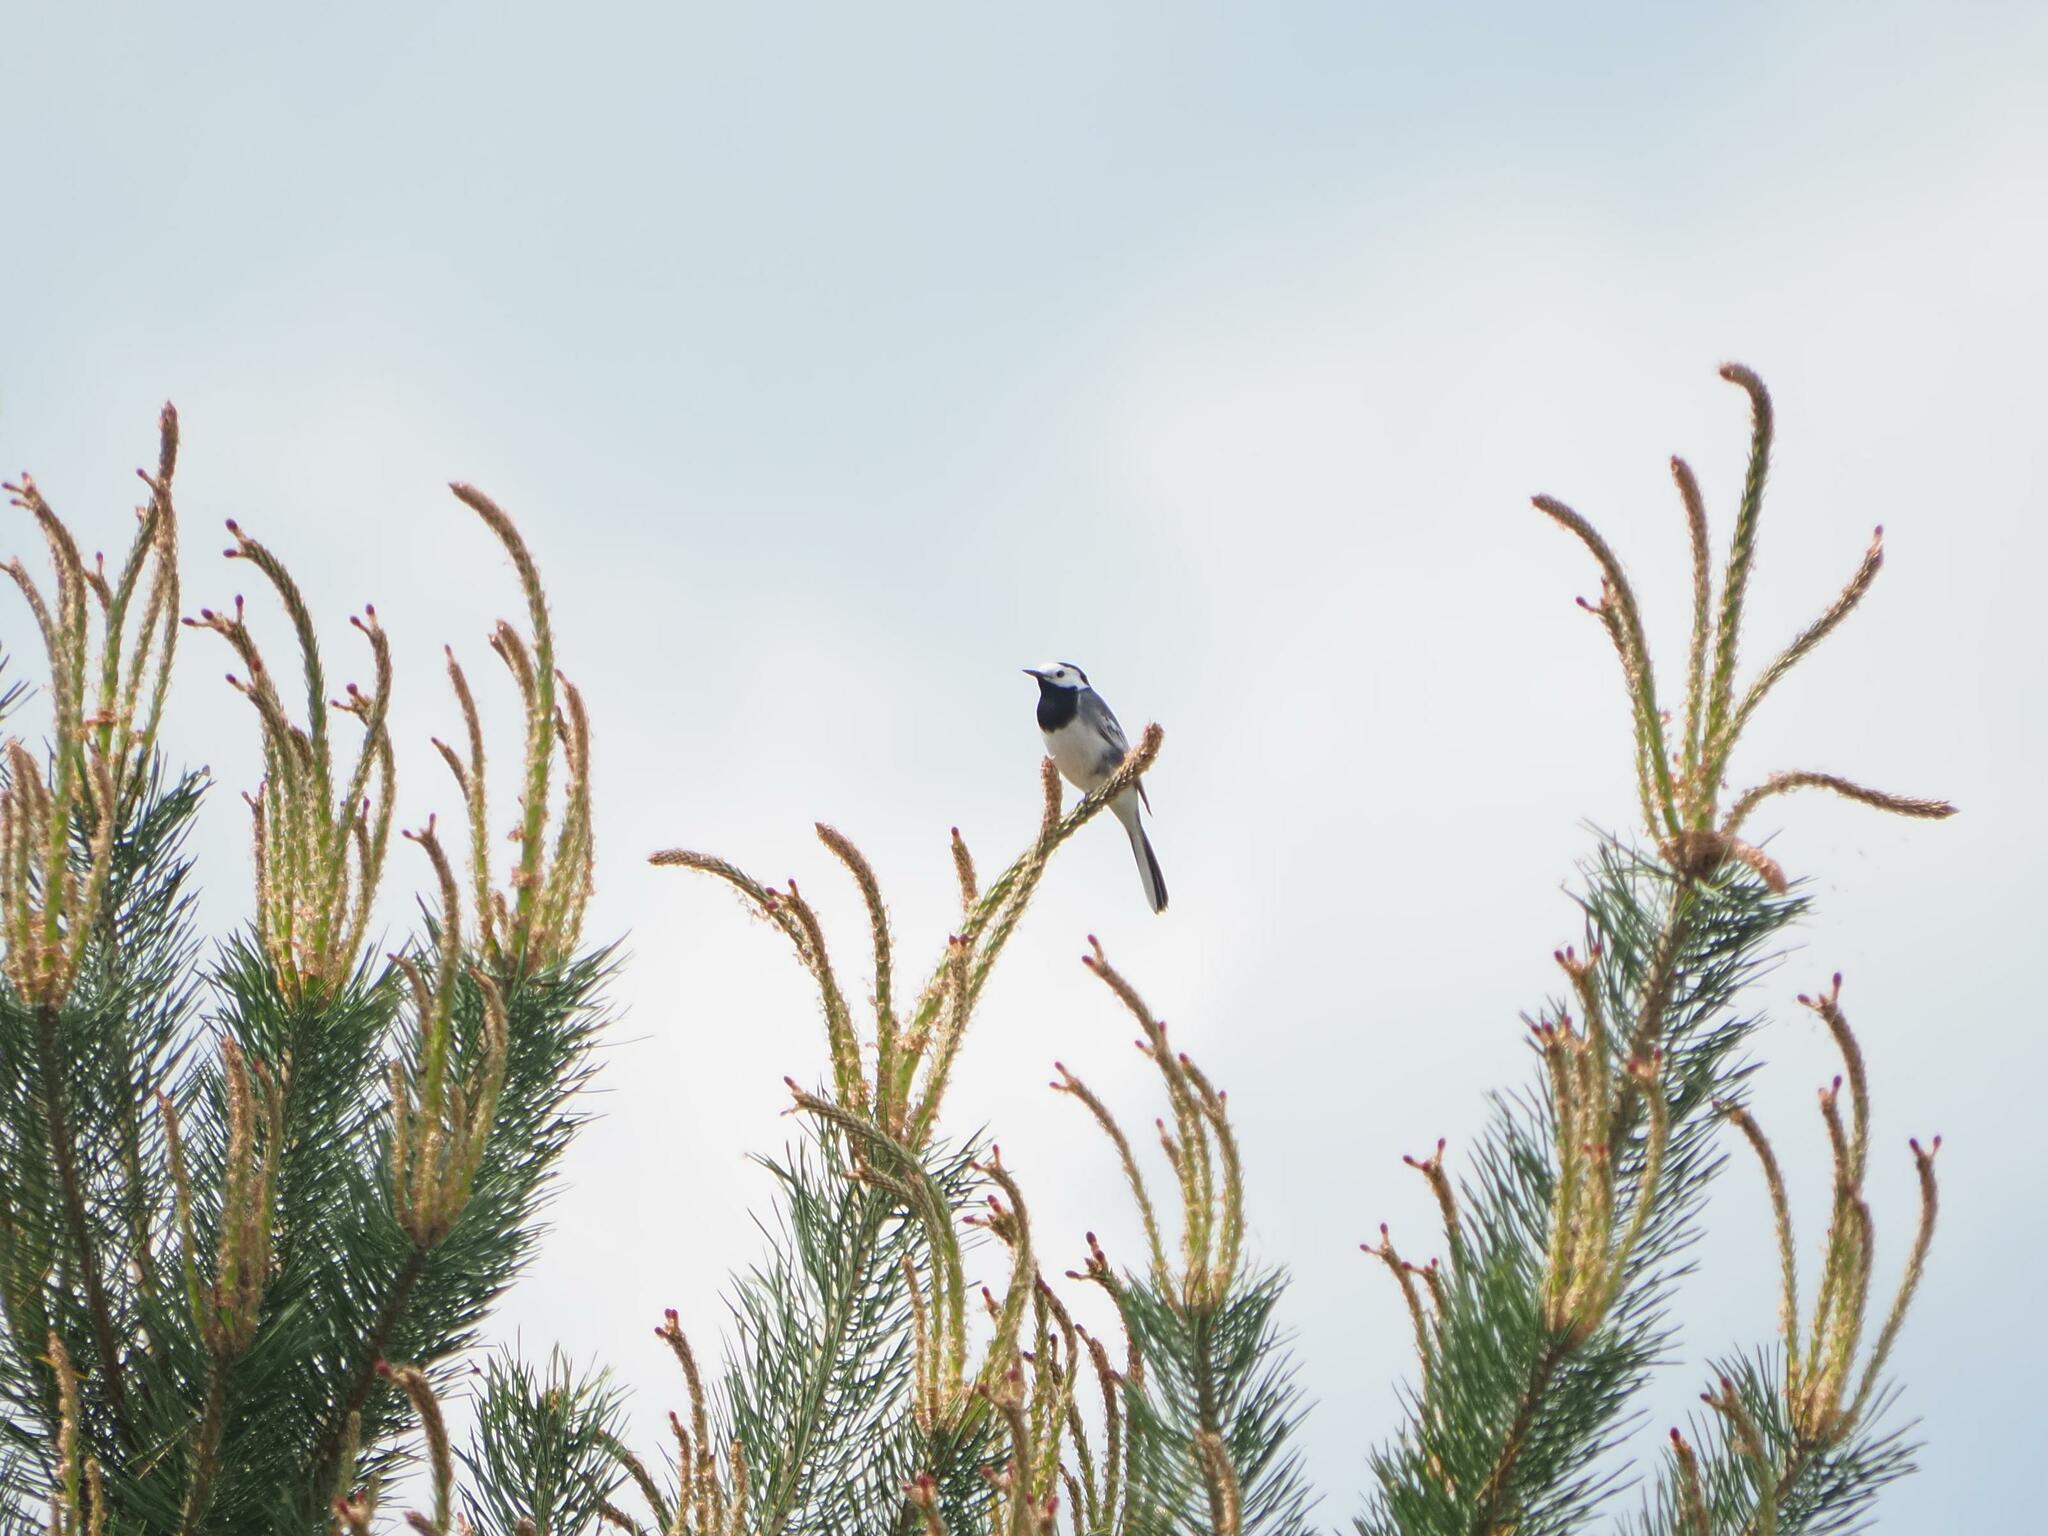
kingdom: Animalia
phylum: Chordata
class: Aves
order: Passeriformes
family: Motacillidae
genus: Motacilla
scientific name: Motacilla alba
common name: White wagtail
